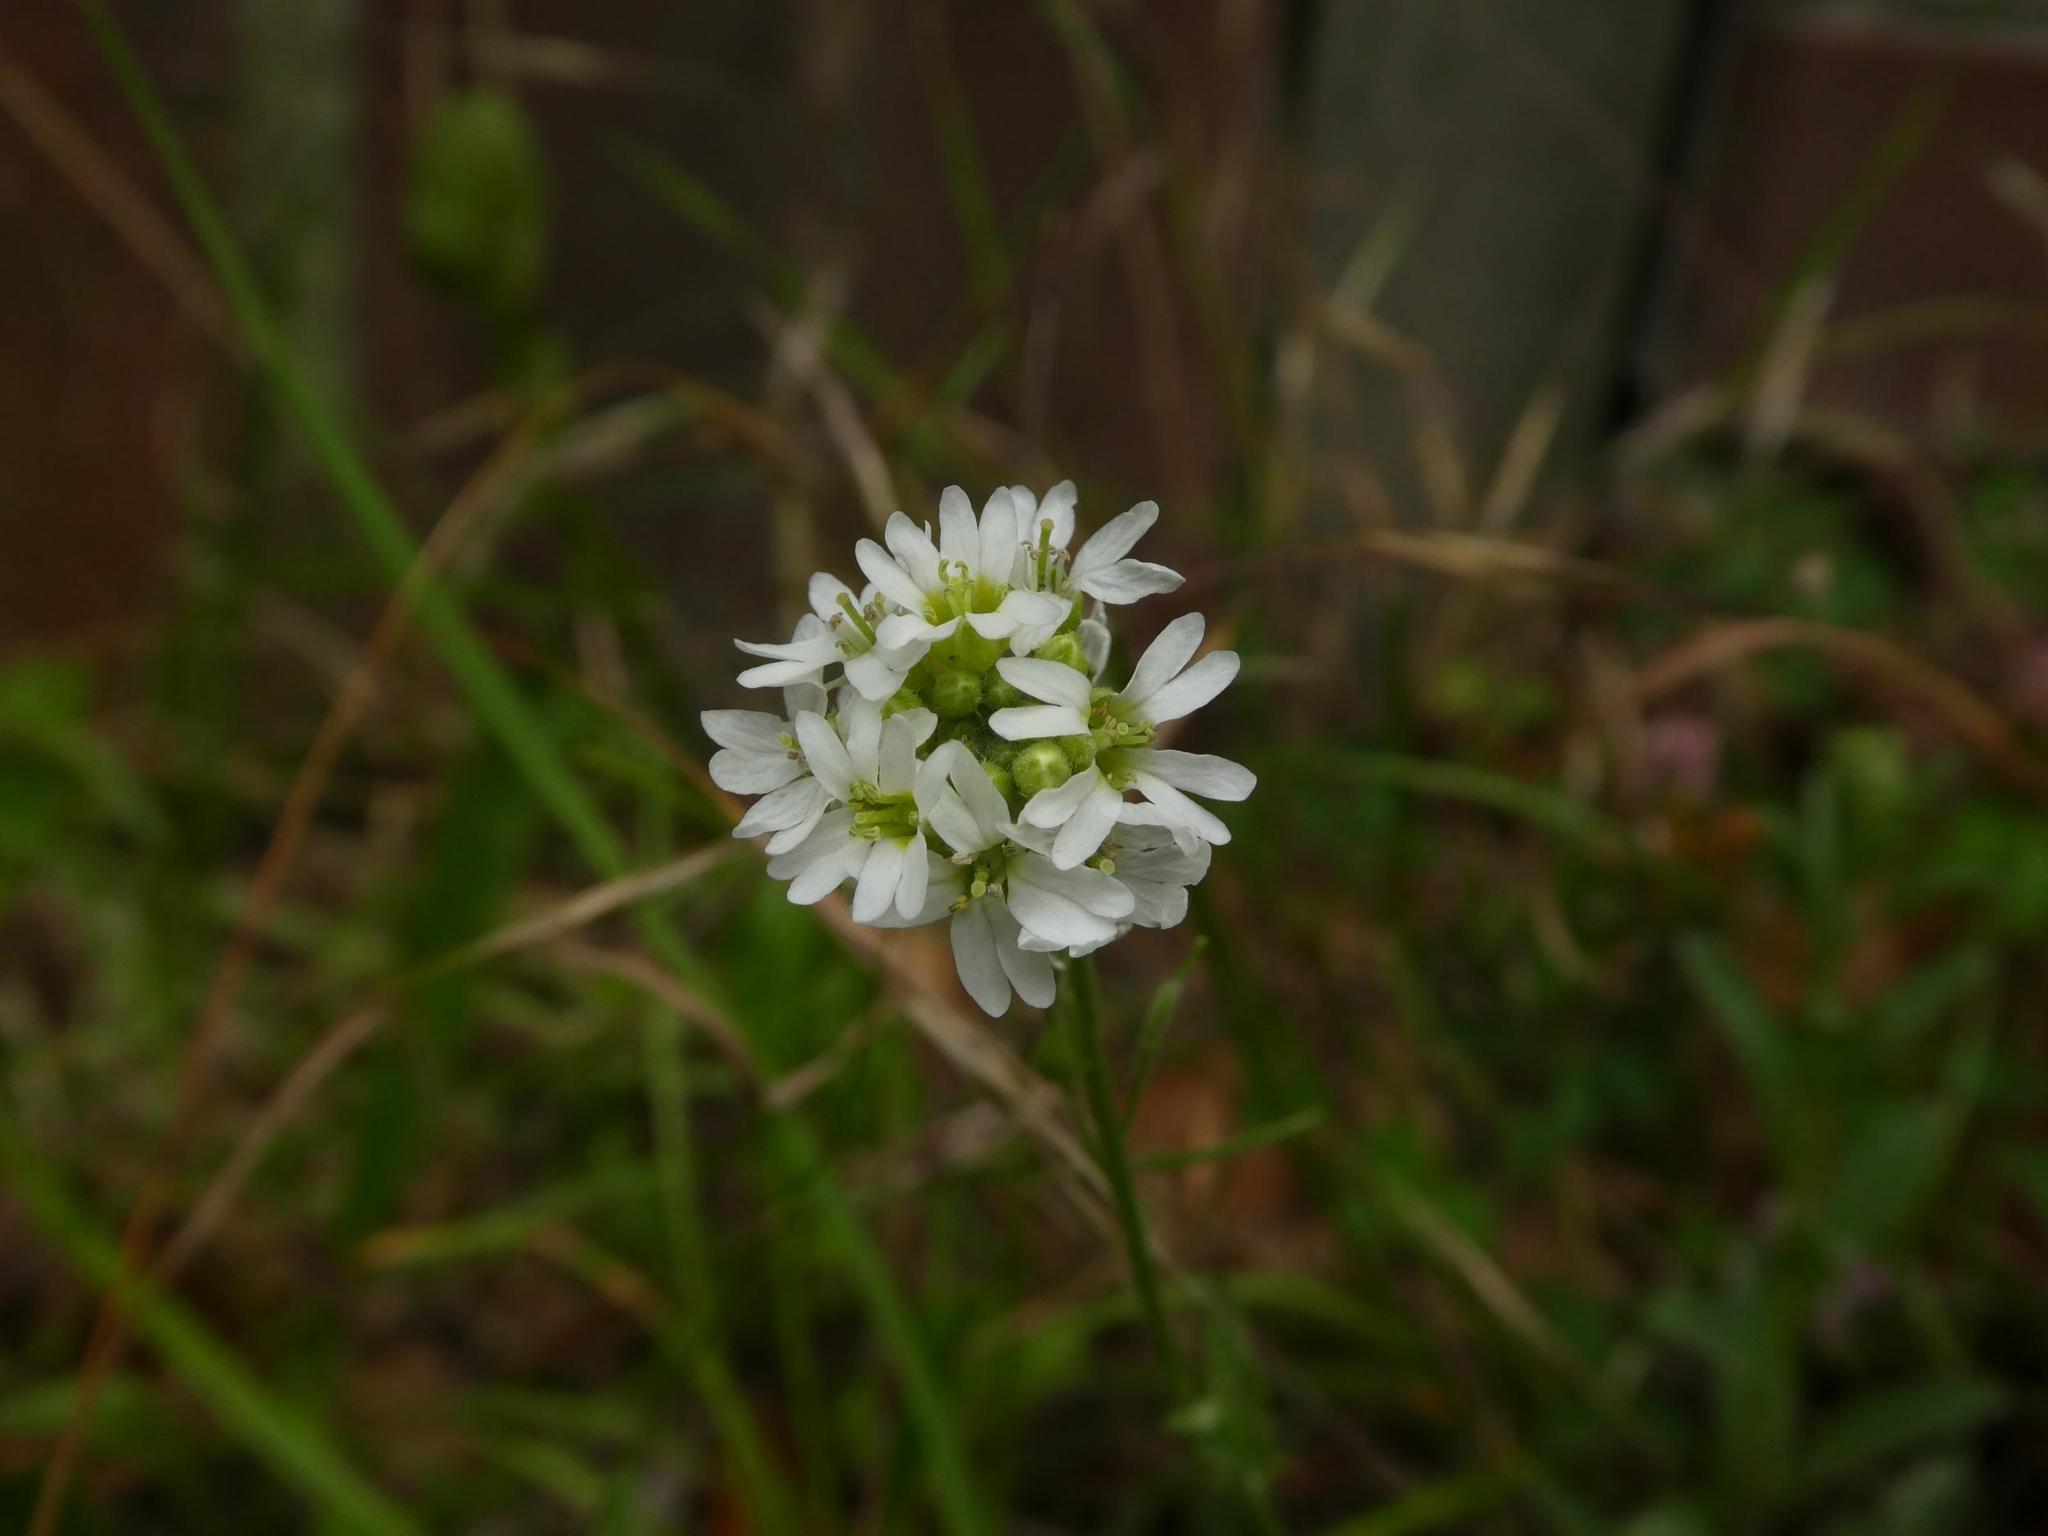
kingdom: Plantae
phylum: Tracheophyta
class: Magnoliopsida
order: Brassicales
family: Brassicaceae
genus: Berteroa
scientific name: Berteroa incana
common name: Hoary alison
